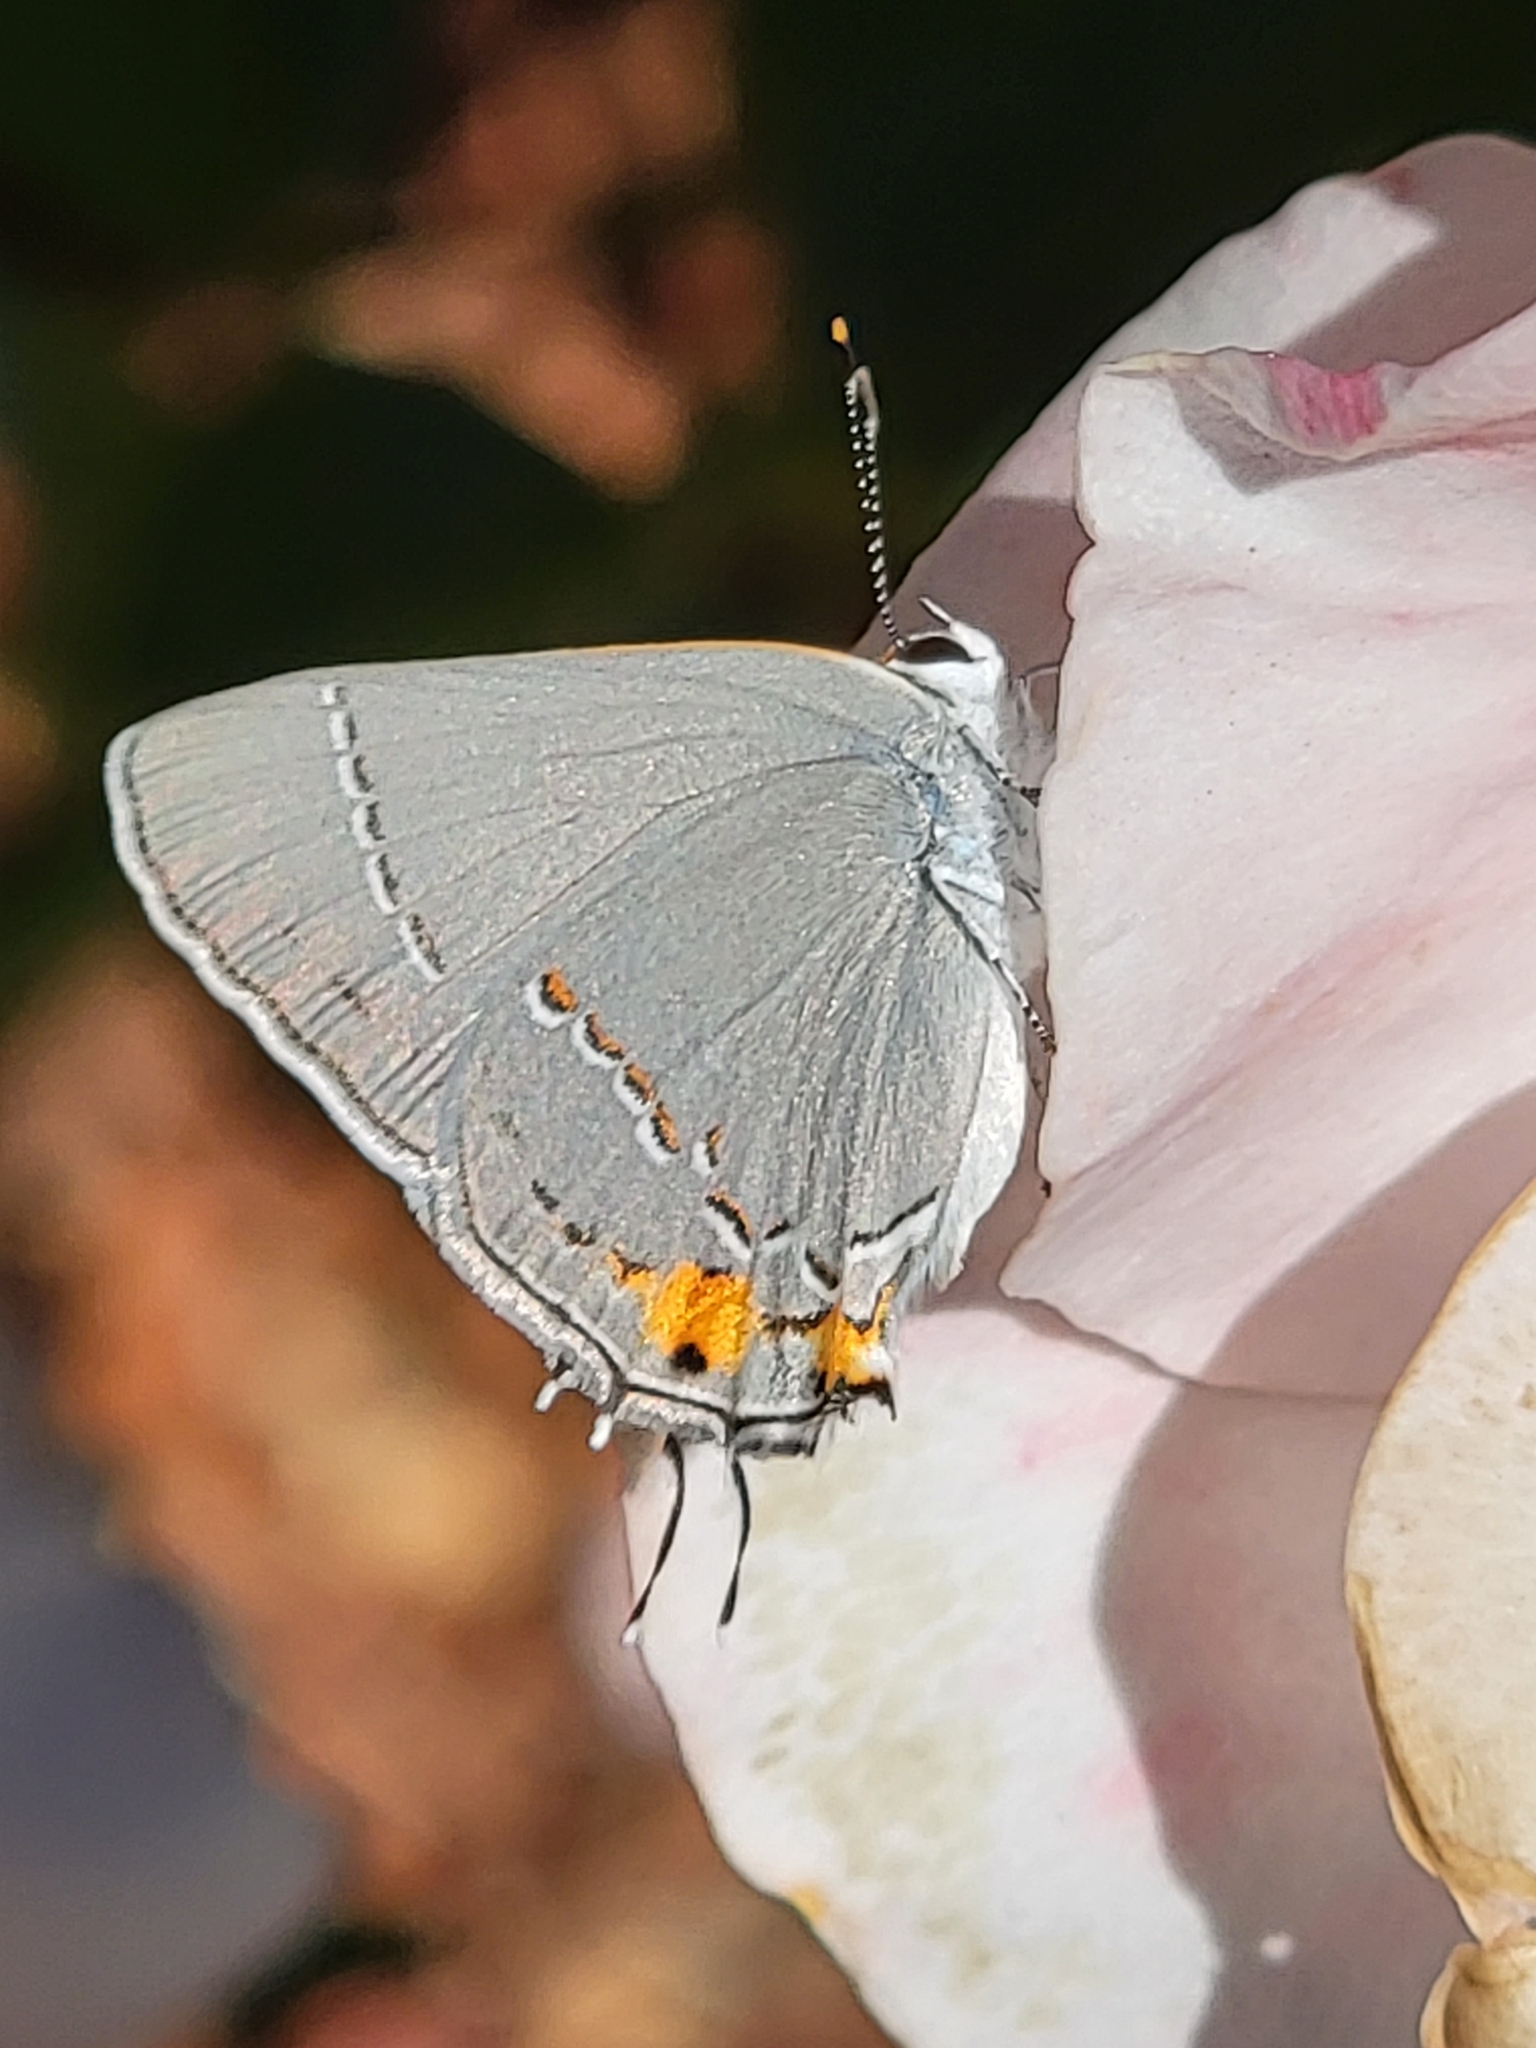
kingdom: Animalia
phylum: Arthropoda
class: Insecta
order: Lepidoptera
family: Lycaenidae
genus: Strymon
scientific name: Strymon melinus
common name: Gray hairstreak
